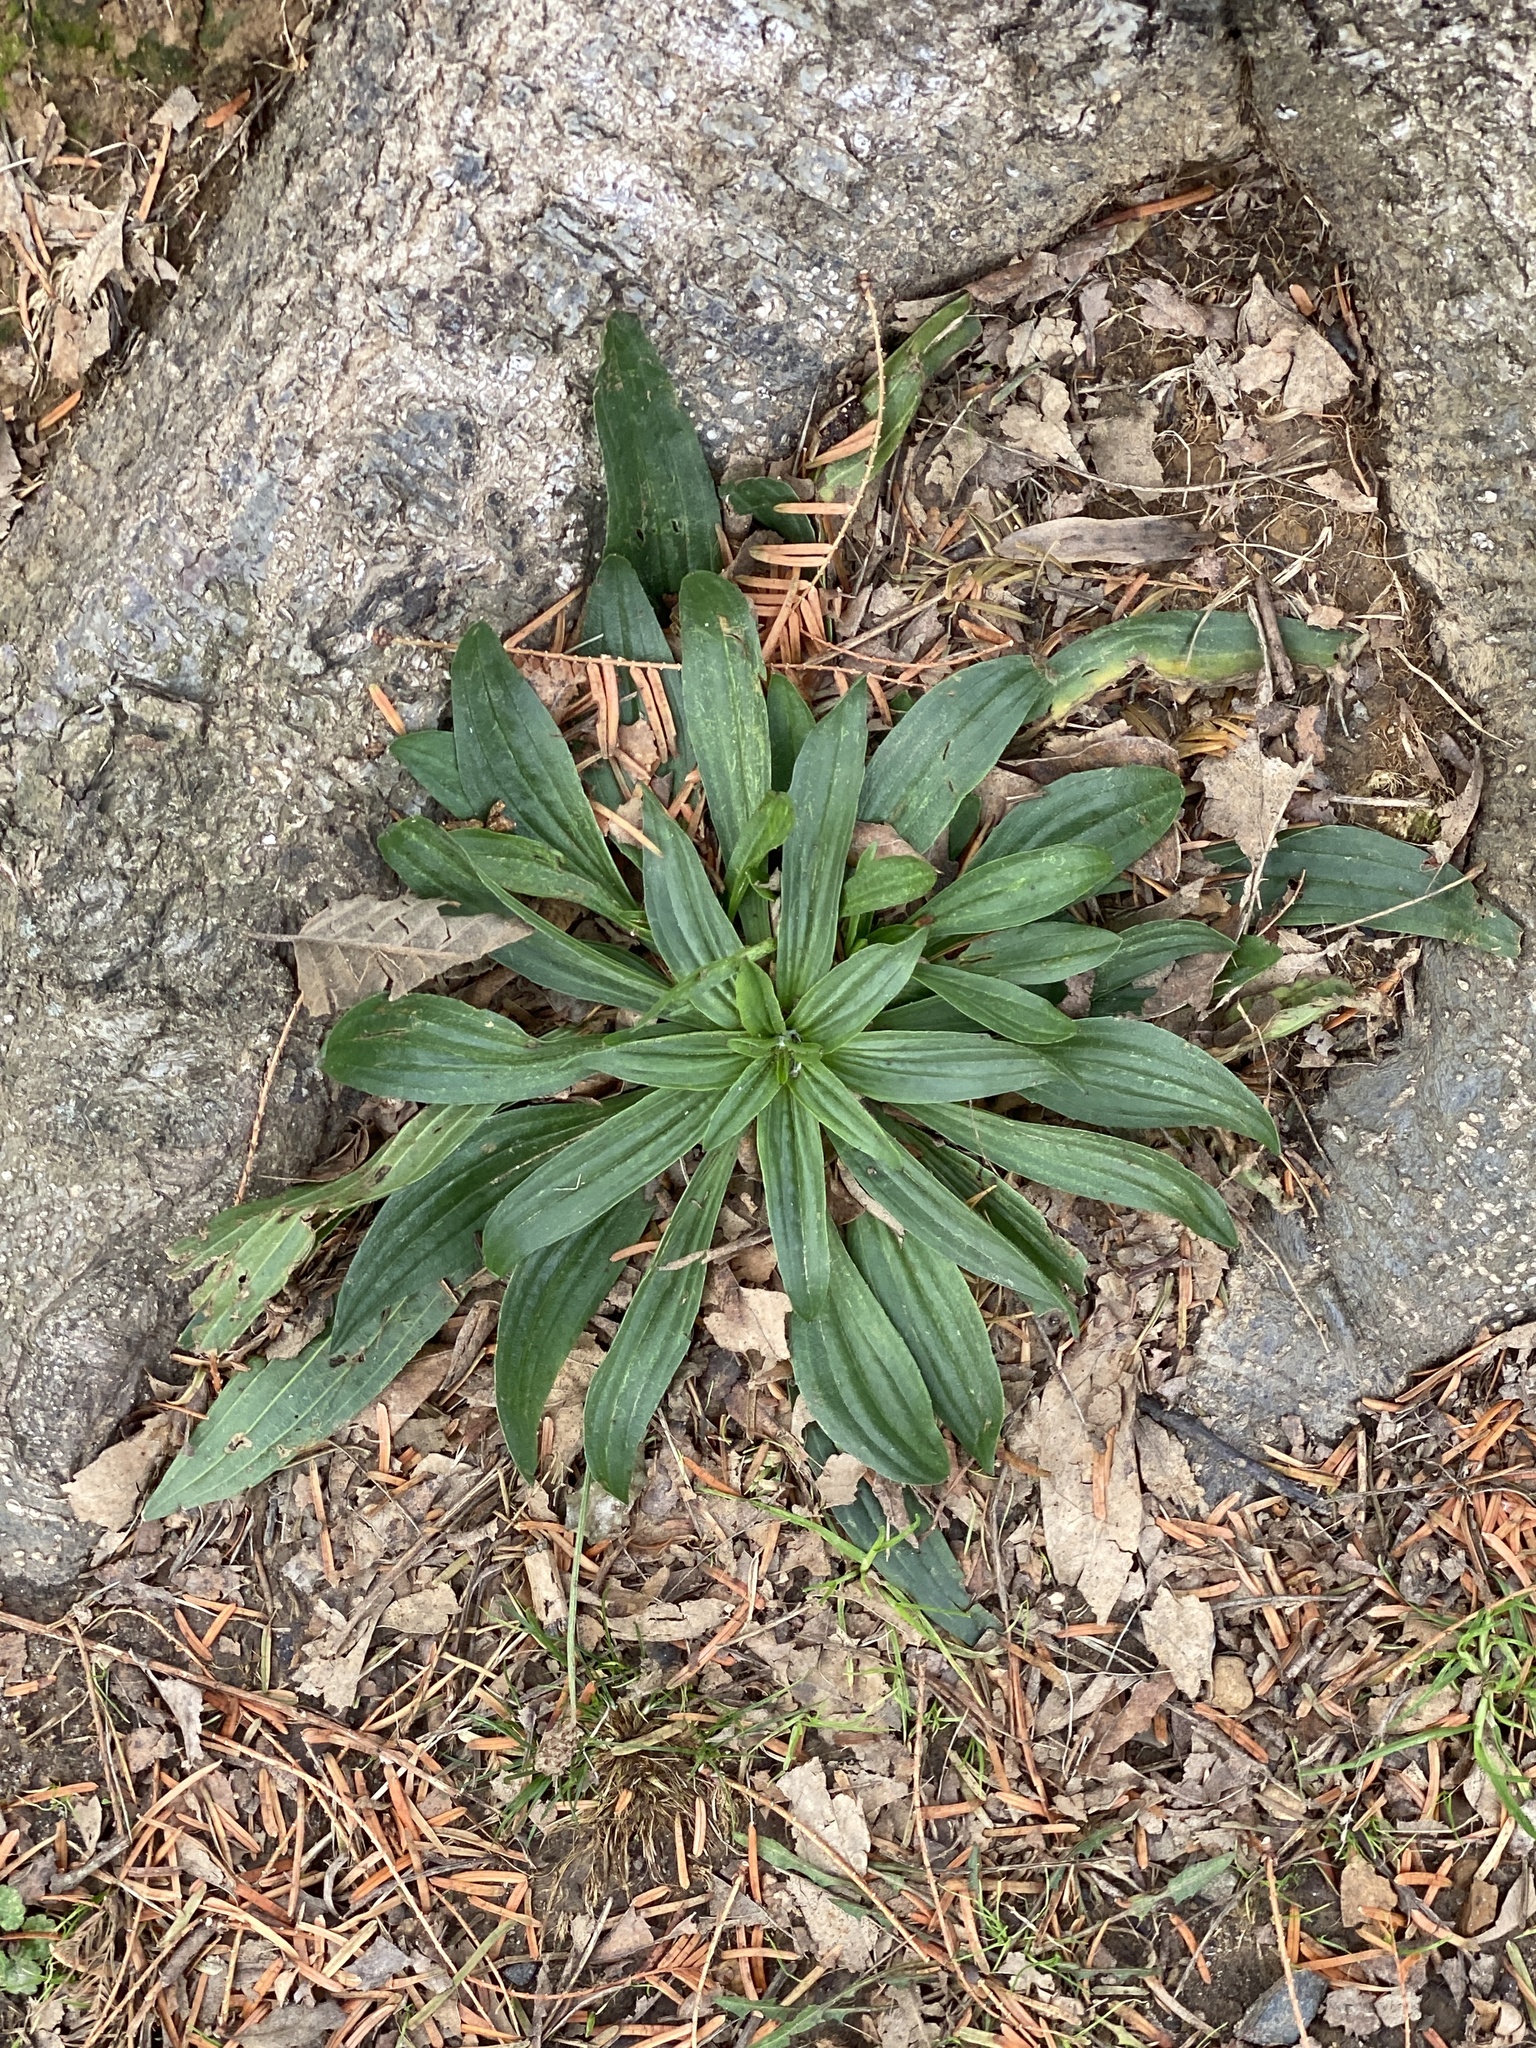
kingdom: Plantae
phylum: Tracheophyta
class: Magnoliopsida
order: Lamiales
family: Plantaginaceae
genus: Plantago
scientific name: Plantago lanceolata
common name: Ribwort plantain
